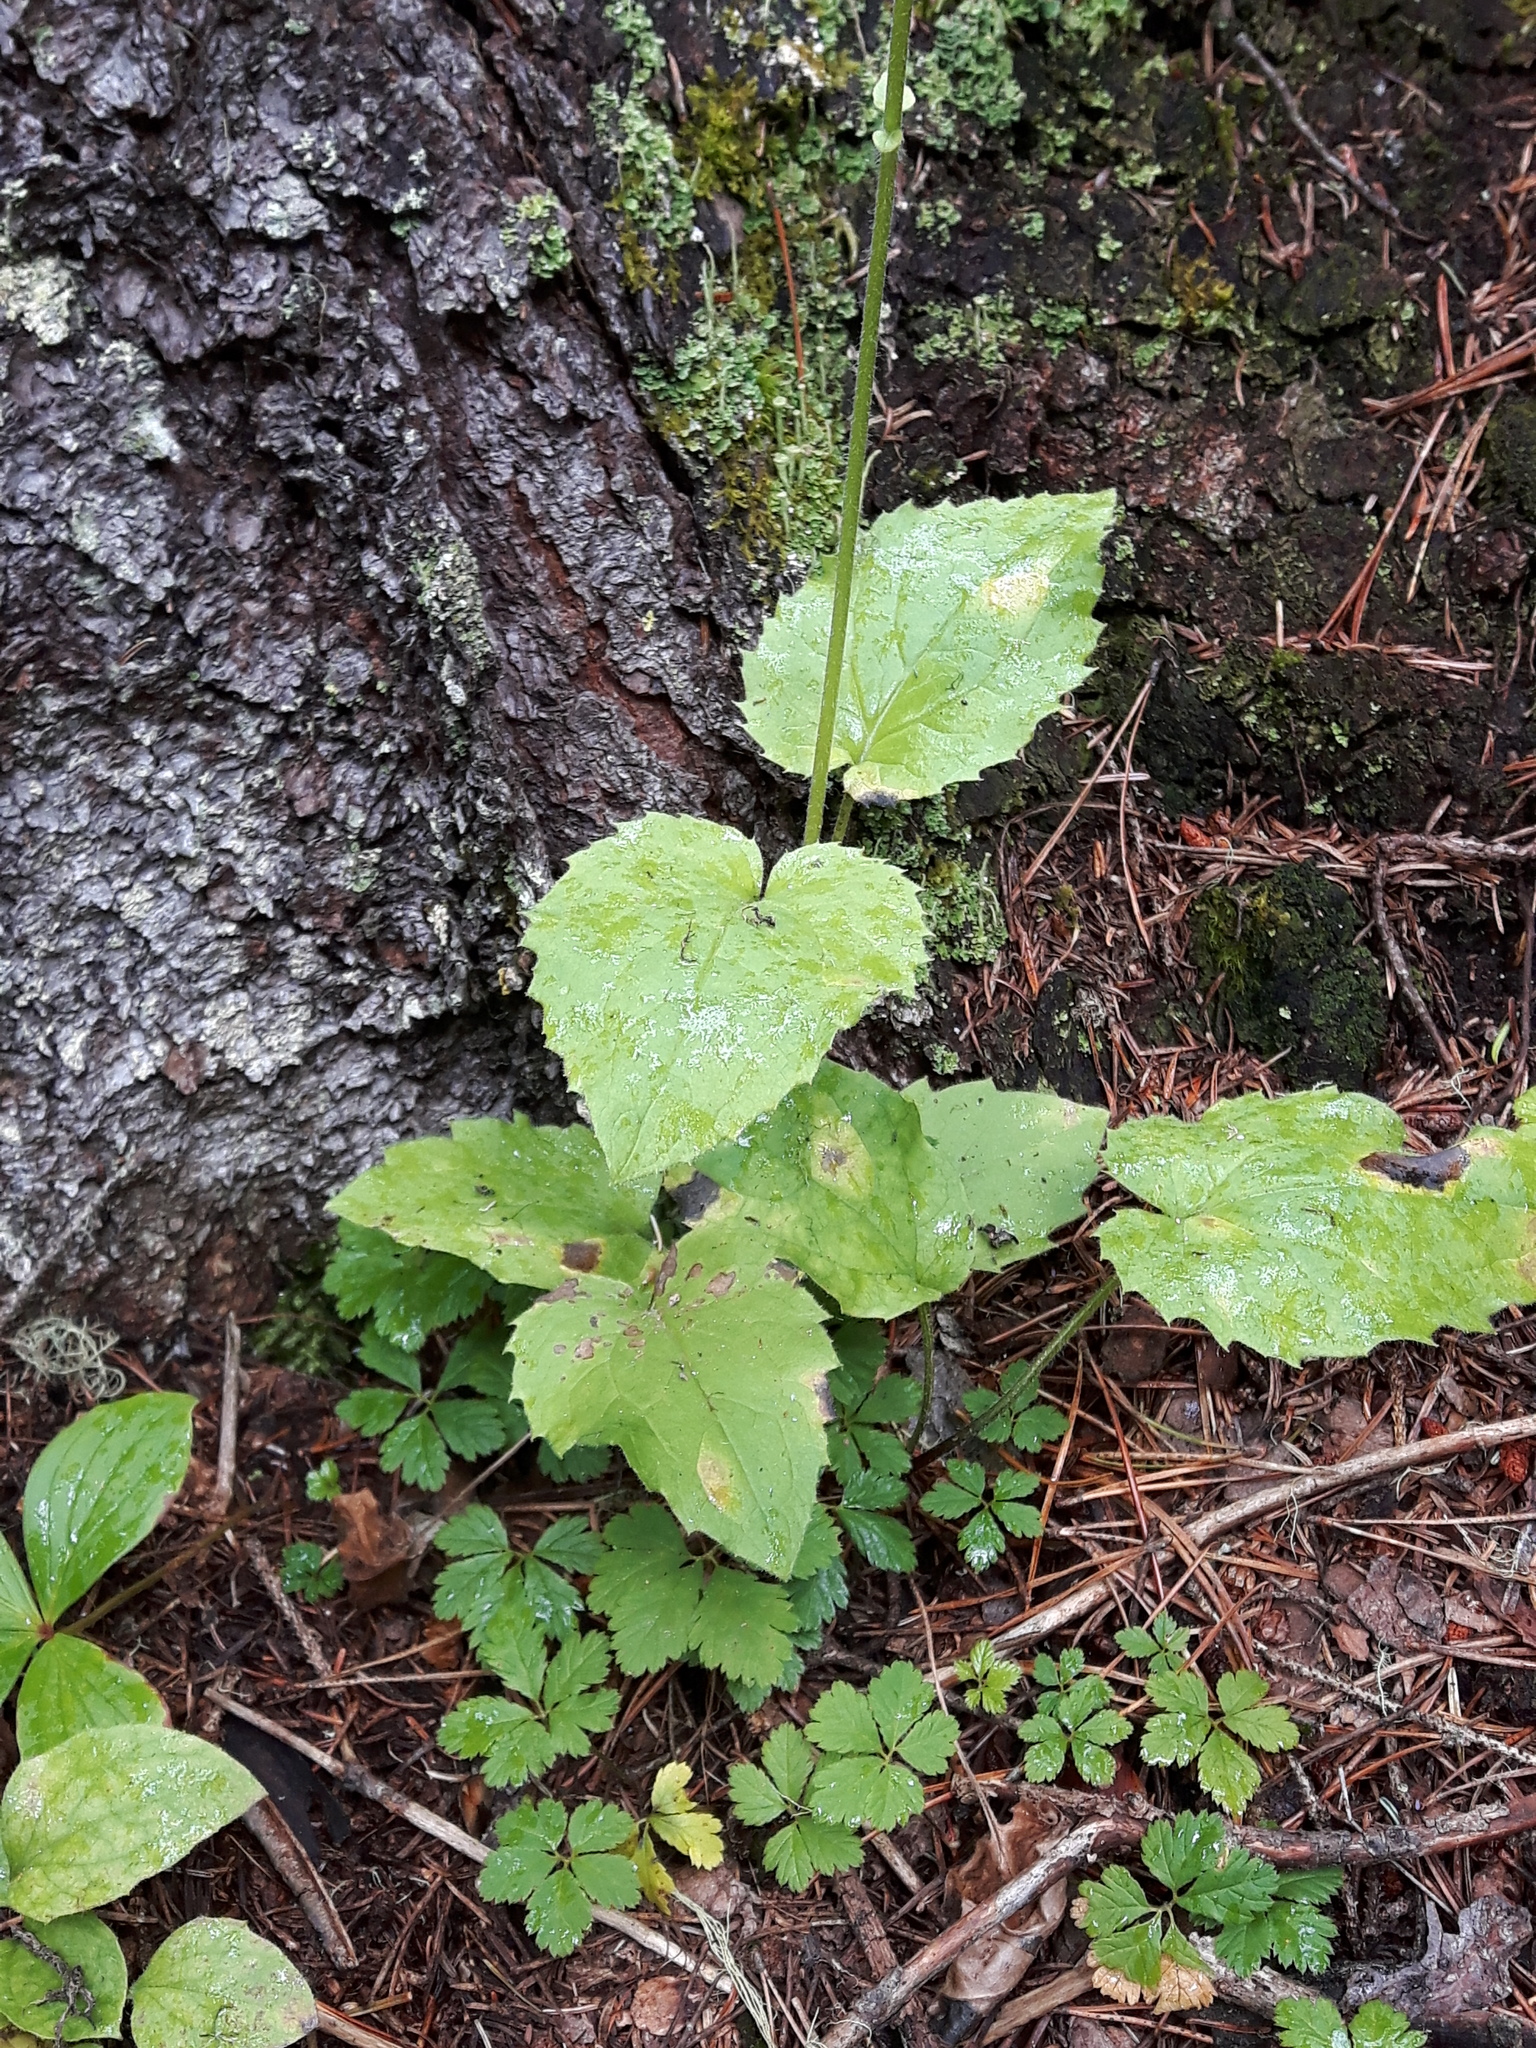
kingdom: Plantae
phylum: Tracheophyta
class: Magnoliopsida
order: Asterales
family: Asteraceae
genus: Arnica
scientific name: Arnica cordifolia
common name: Heart-leaf arnica
